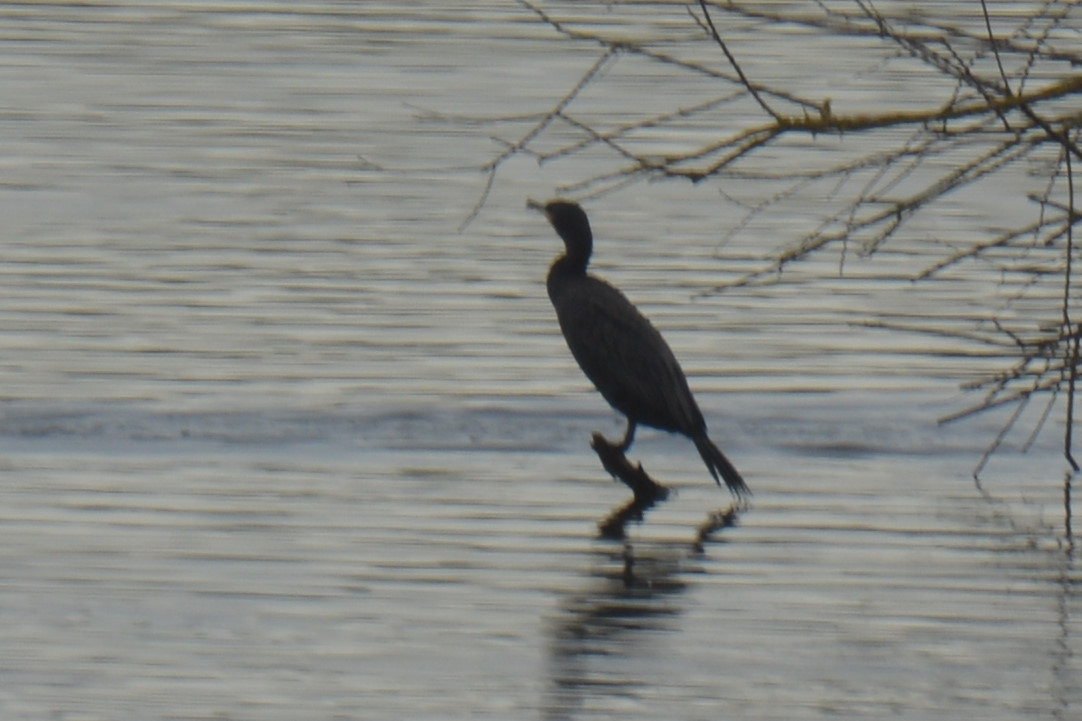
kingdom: Animalia
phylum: Chordata
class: Aves
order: Suliformes
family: Phalacrocoracidae
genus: Phalacrocorax
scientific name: Phalacrocorax carbo
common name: Great cormorant
